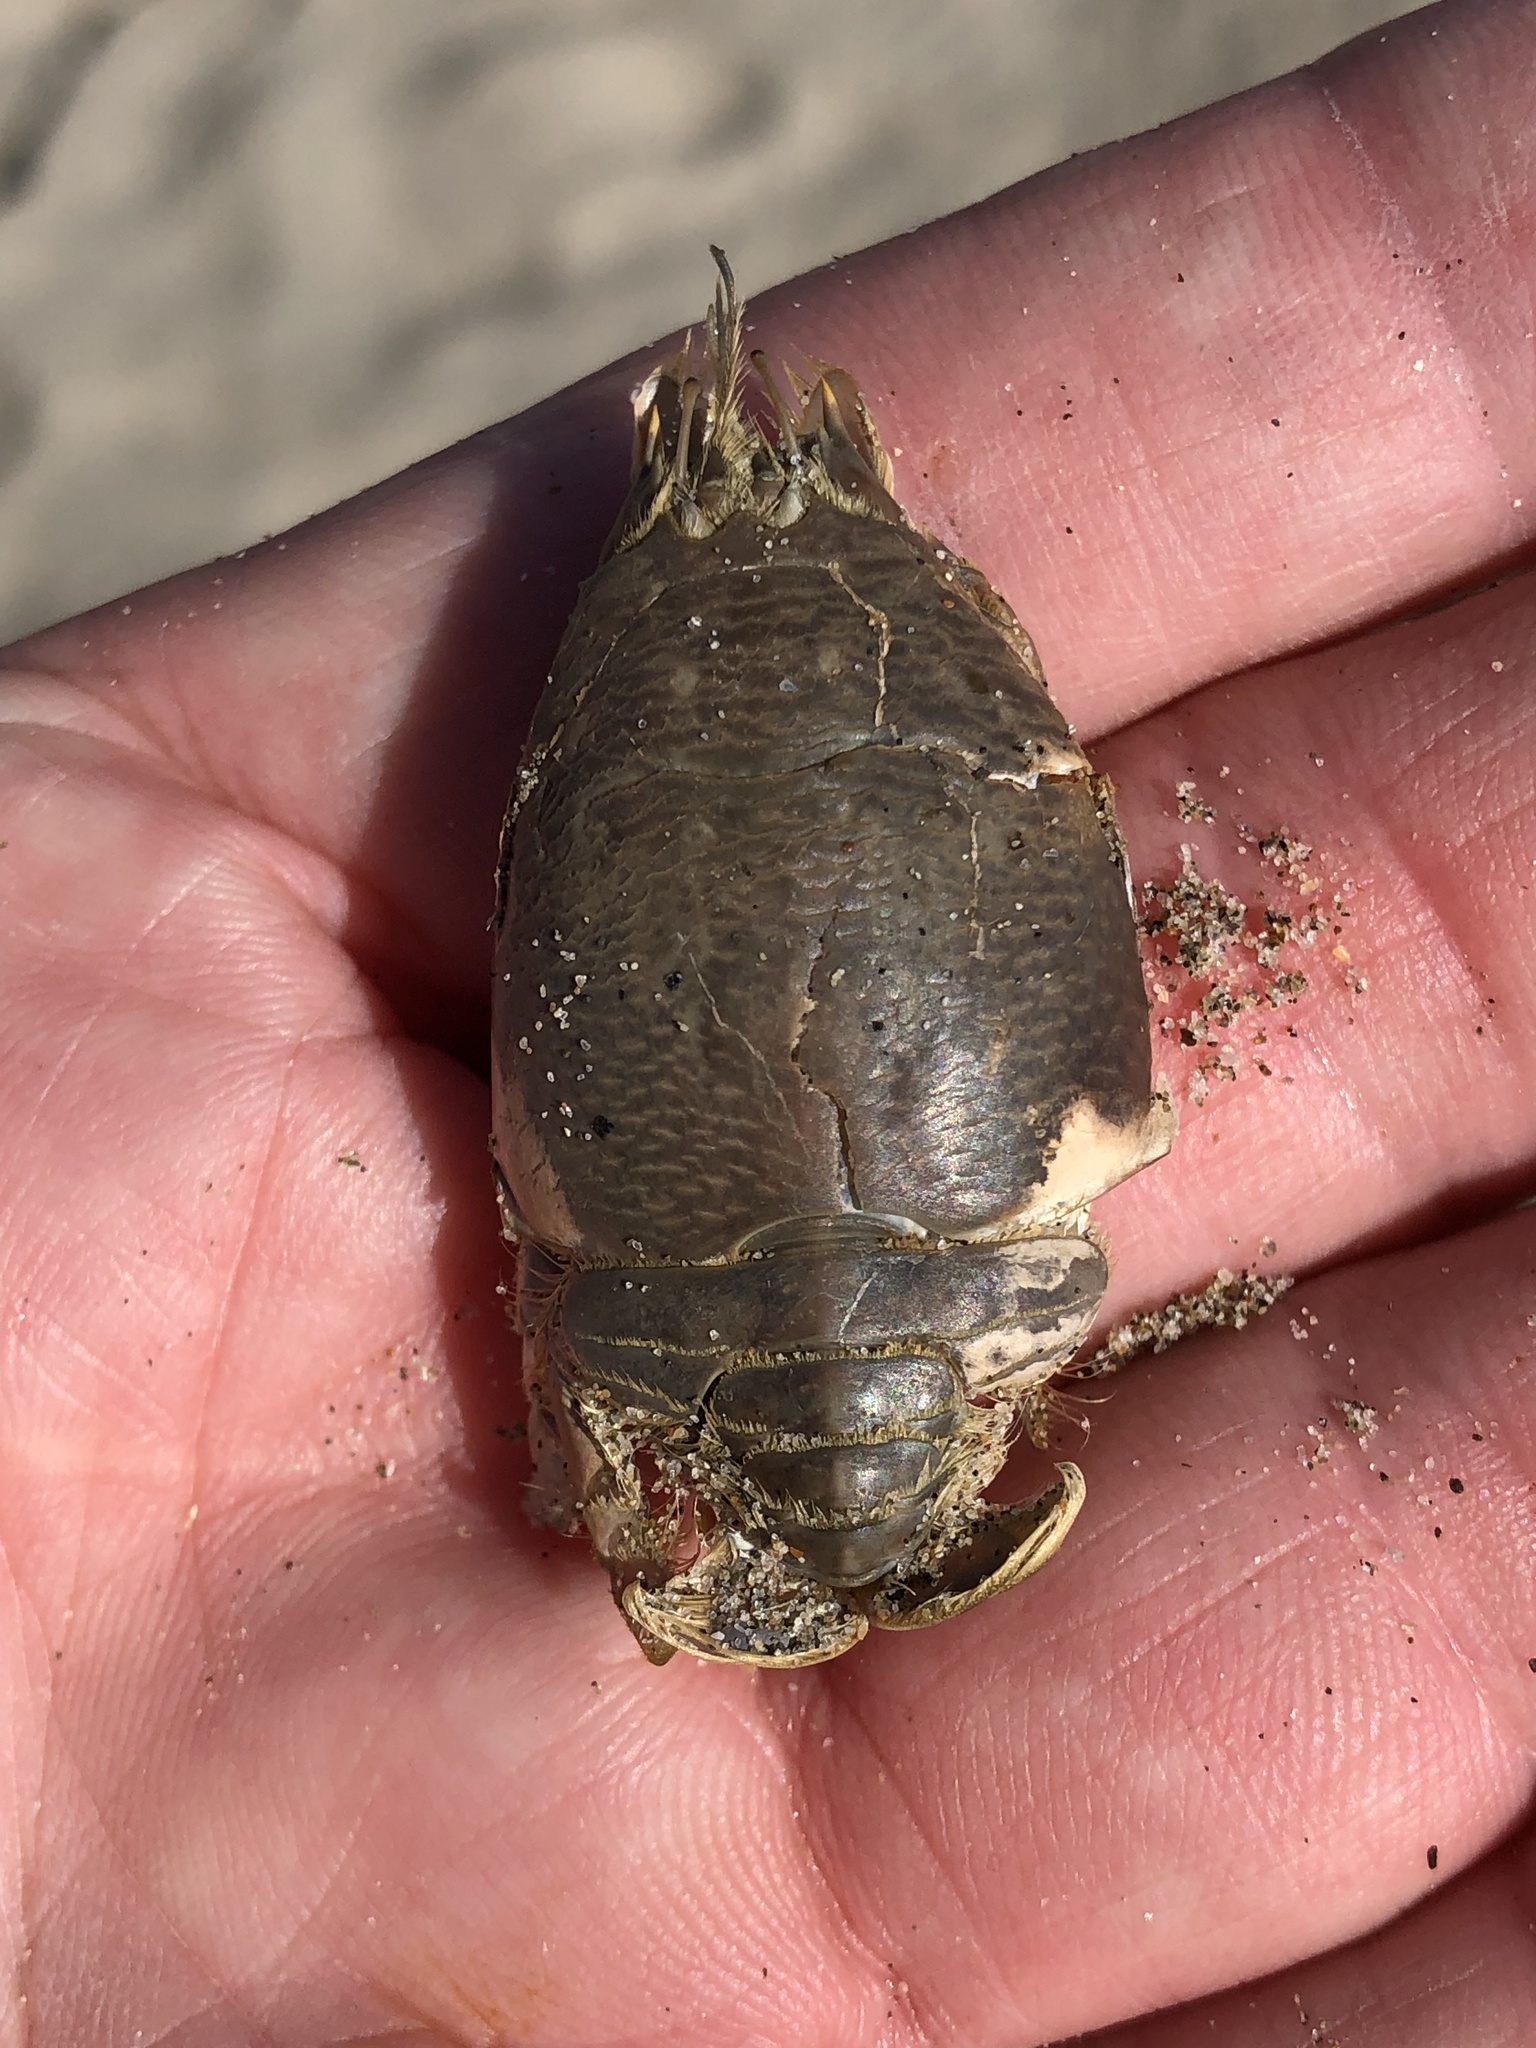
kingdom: Animalia
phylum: Arthropoda
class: Malacostraca
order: Decapoda
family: Hippidae
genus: Emerita
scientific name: Emerita analoga
